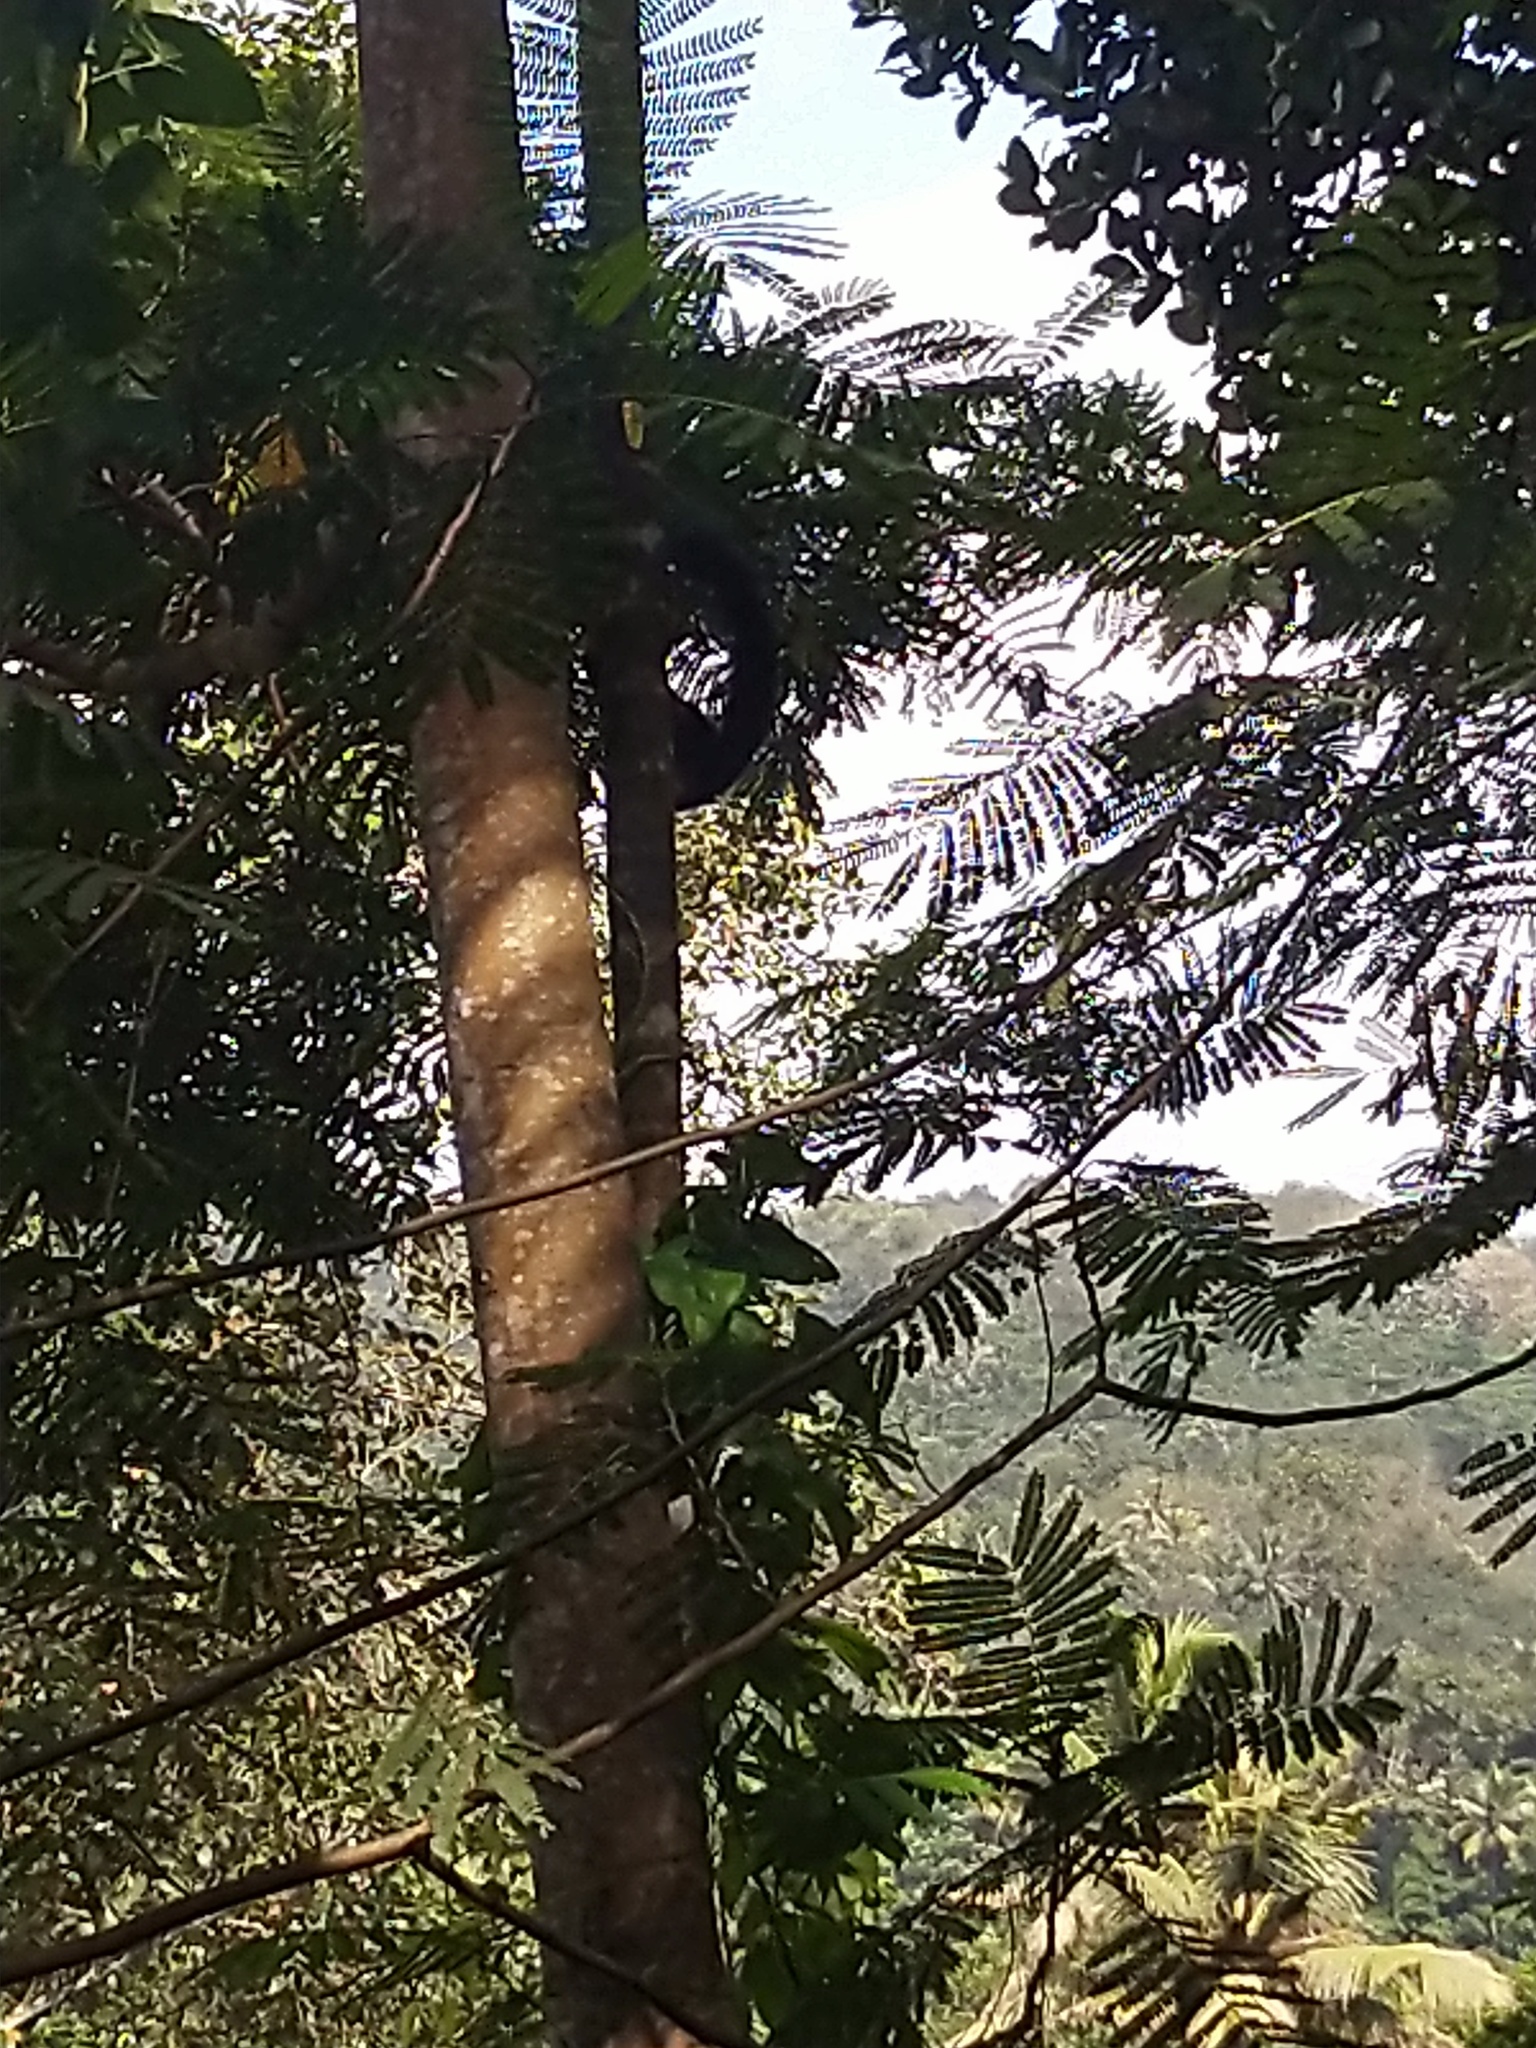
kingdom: Animalia
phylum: Chordata
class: Mammalia
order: Rodentia
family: Sciuridae
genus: Ratufa
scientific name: Ratufa indica
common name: Indian giant squirrel
